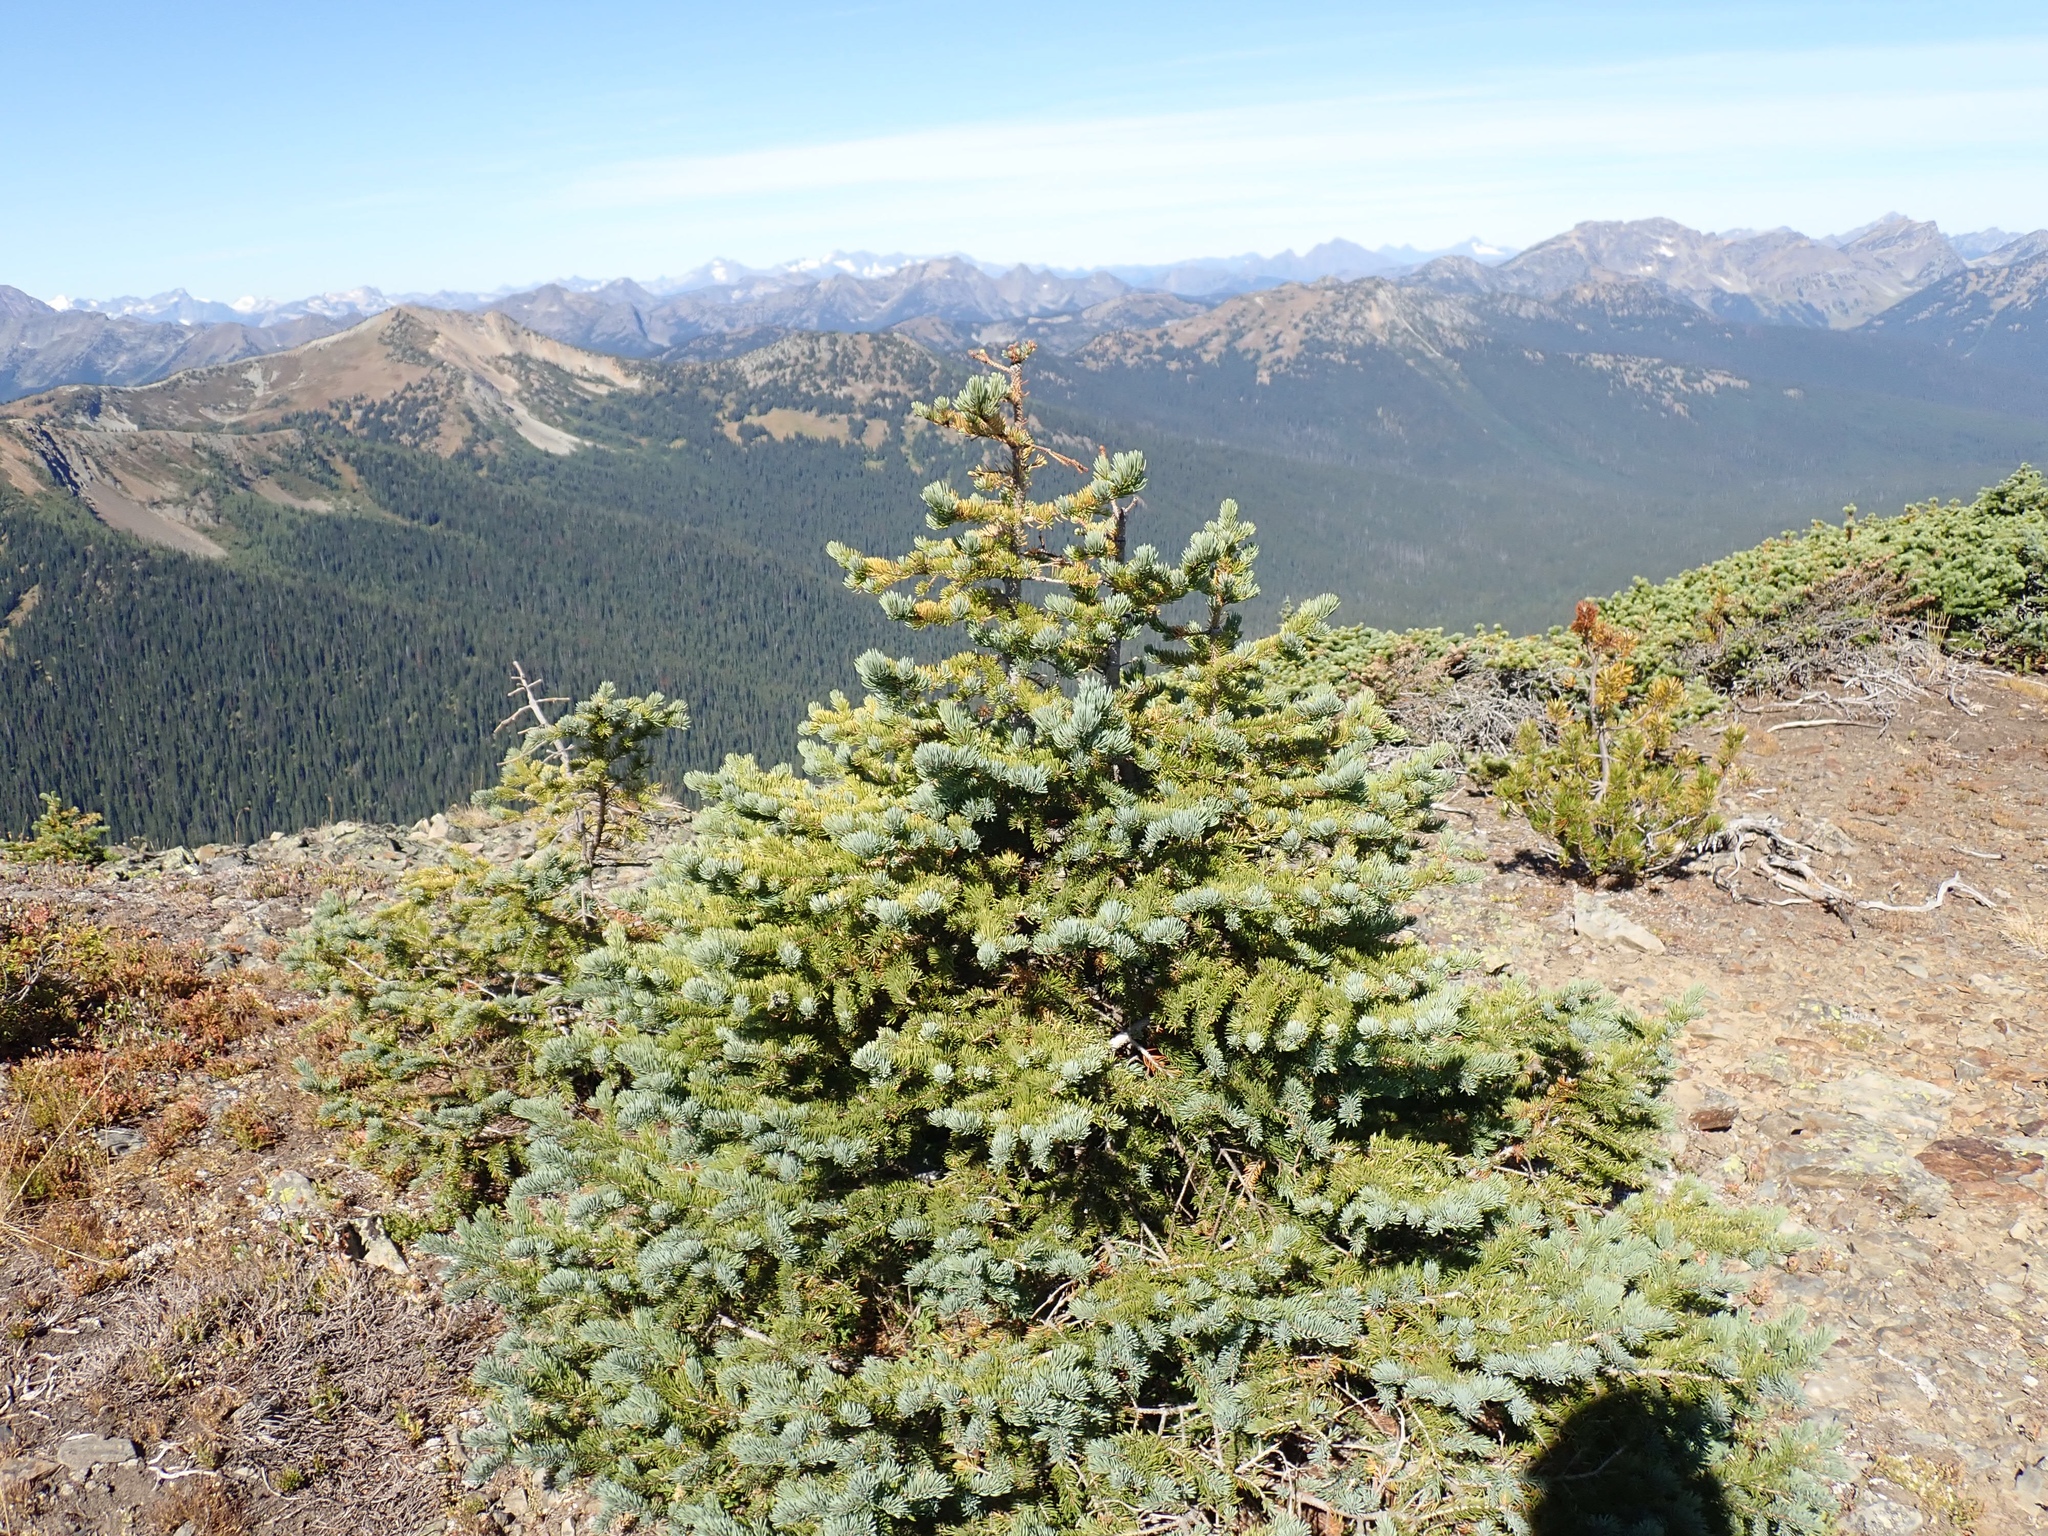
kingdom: Plantae
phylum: Tracheophyta
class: Pinopsida
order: Pinales
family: Pinaceae
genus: Picea
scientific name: Picea engelmannii
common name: Engelmann spruce
